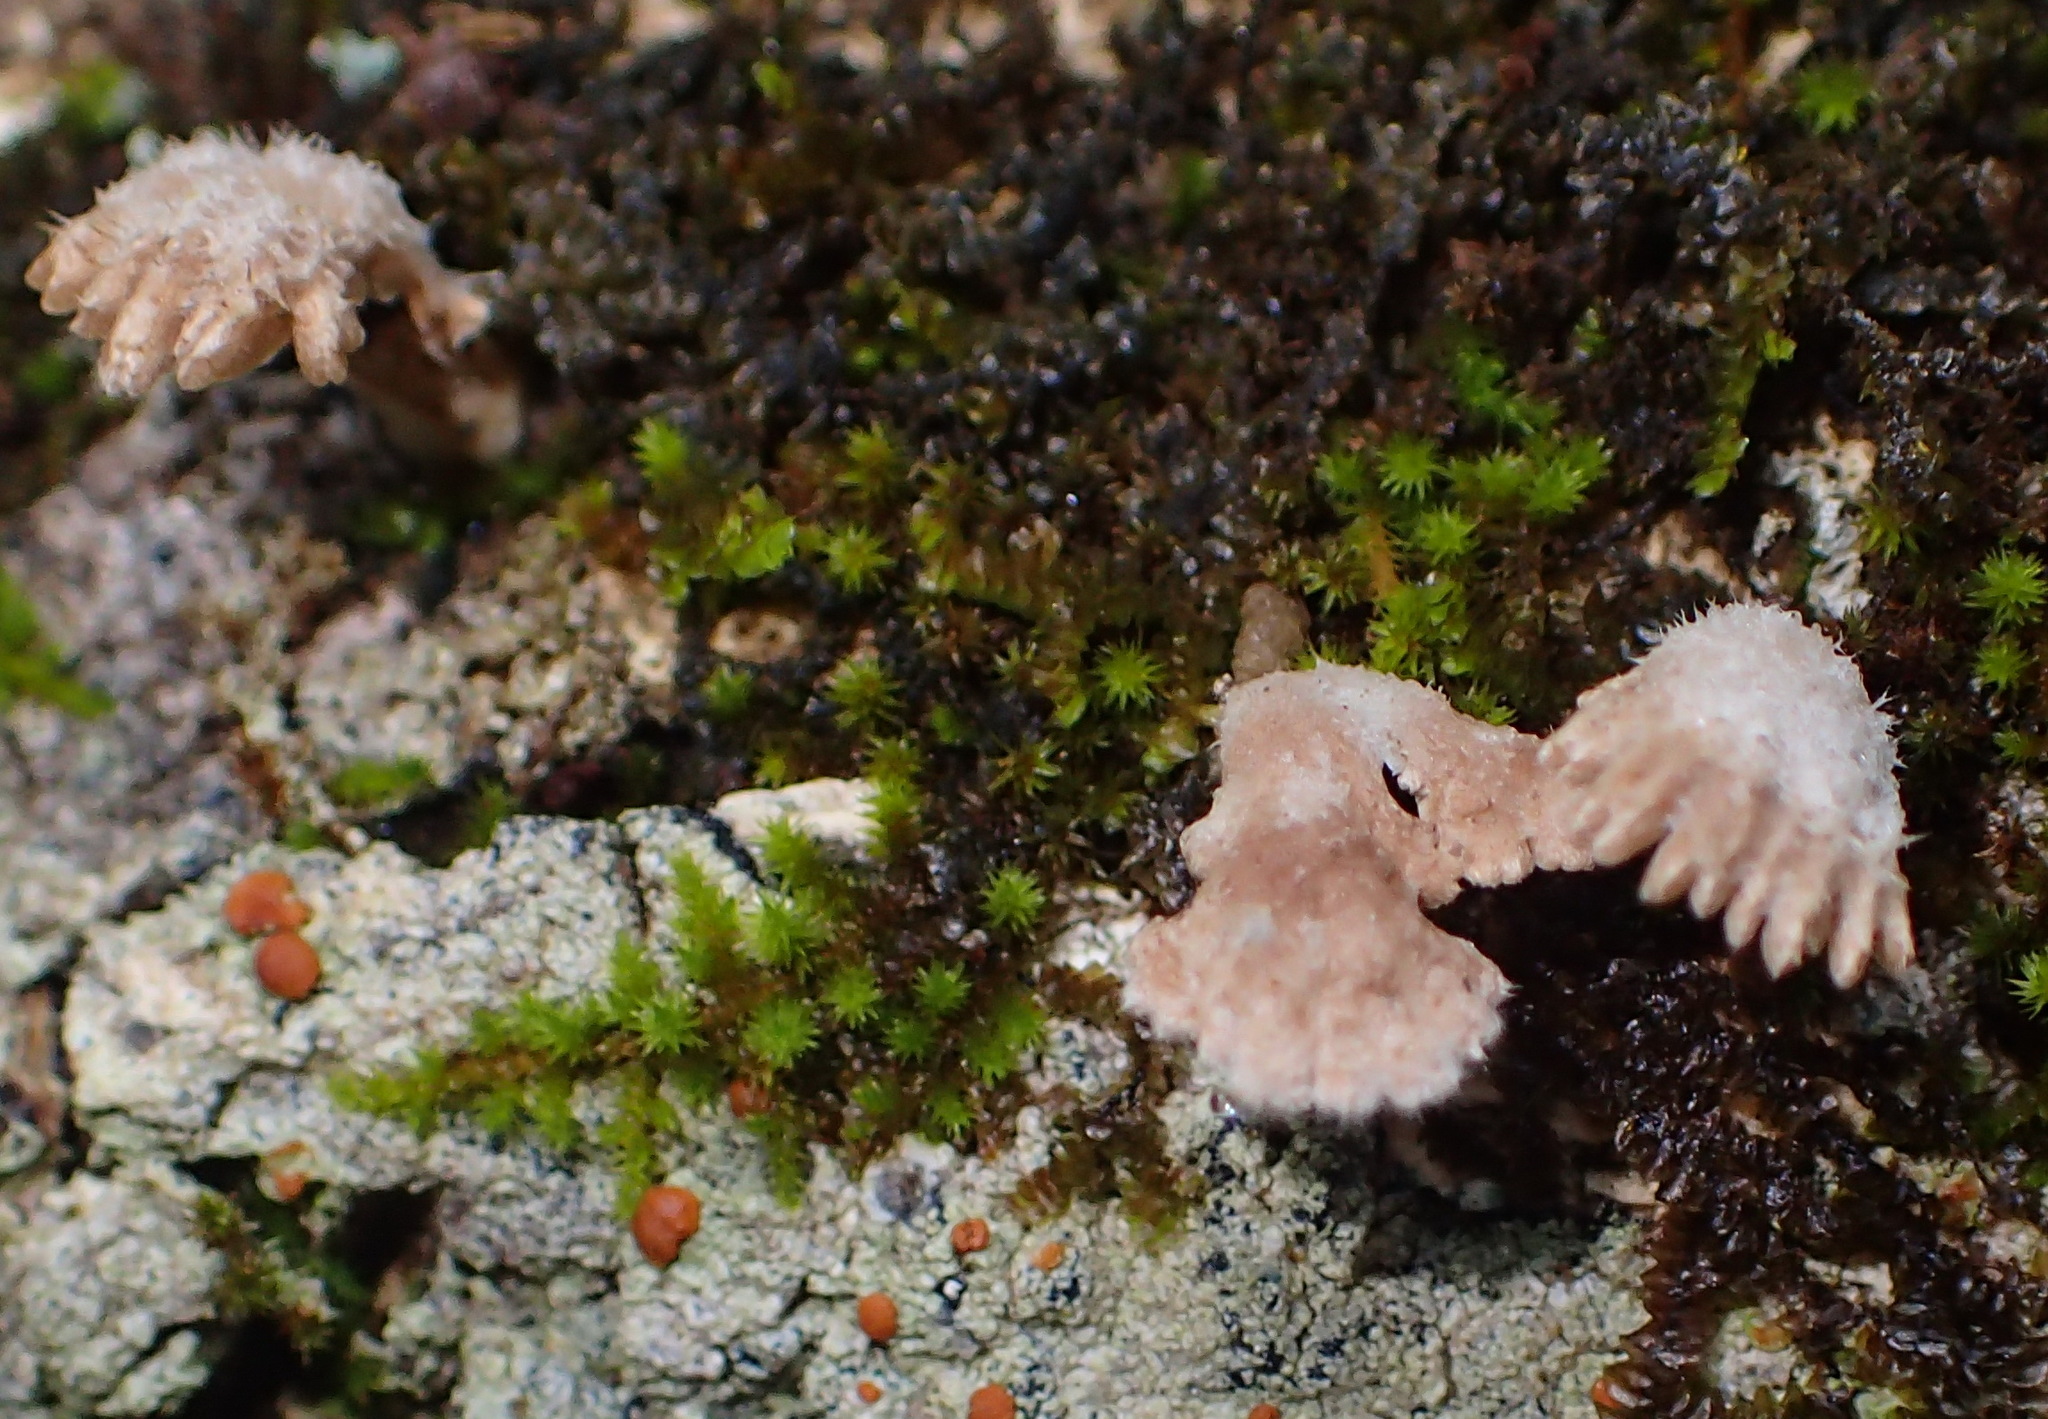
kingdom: Fungi
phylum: Basidiomycota
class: Agaricomycetes
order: Agaricales
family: Schizophyllaceae
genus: Schizophyllum
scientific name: Schizophyllum commune
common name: Common porecrust
